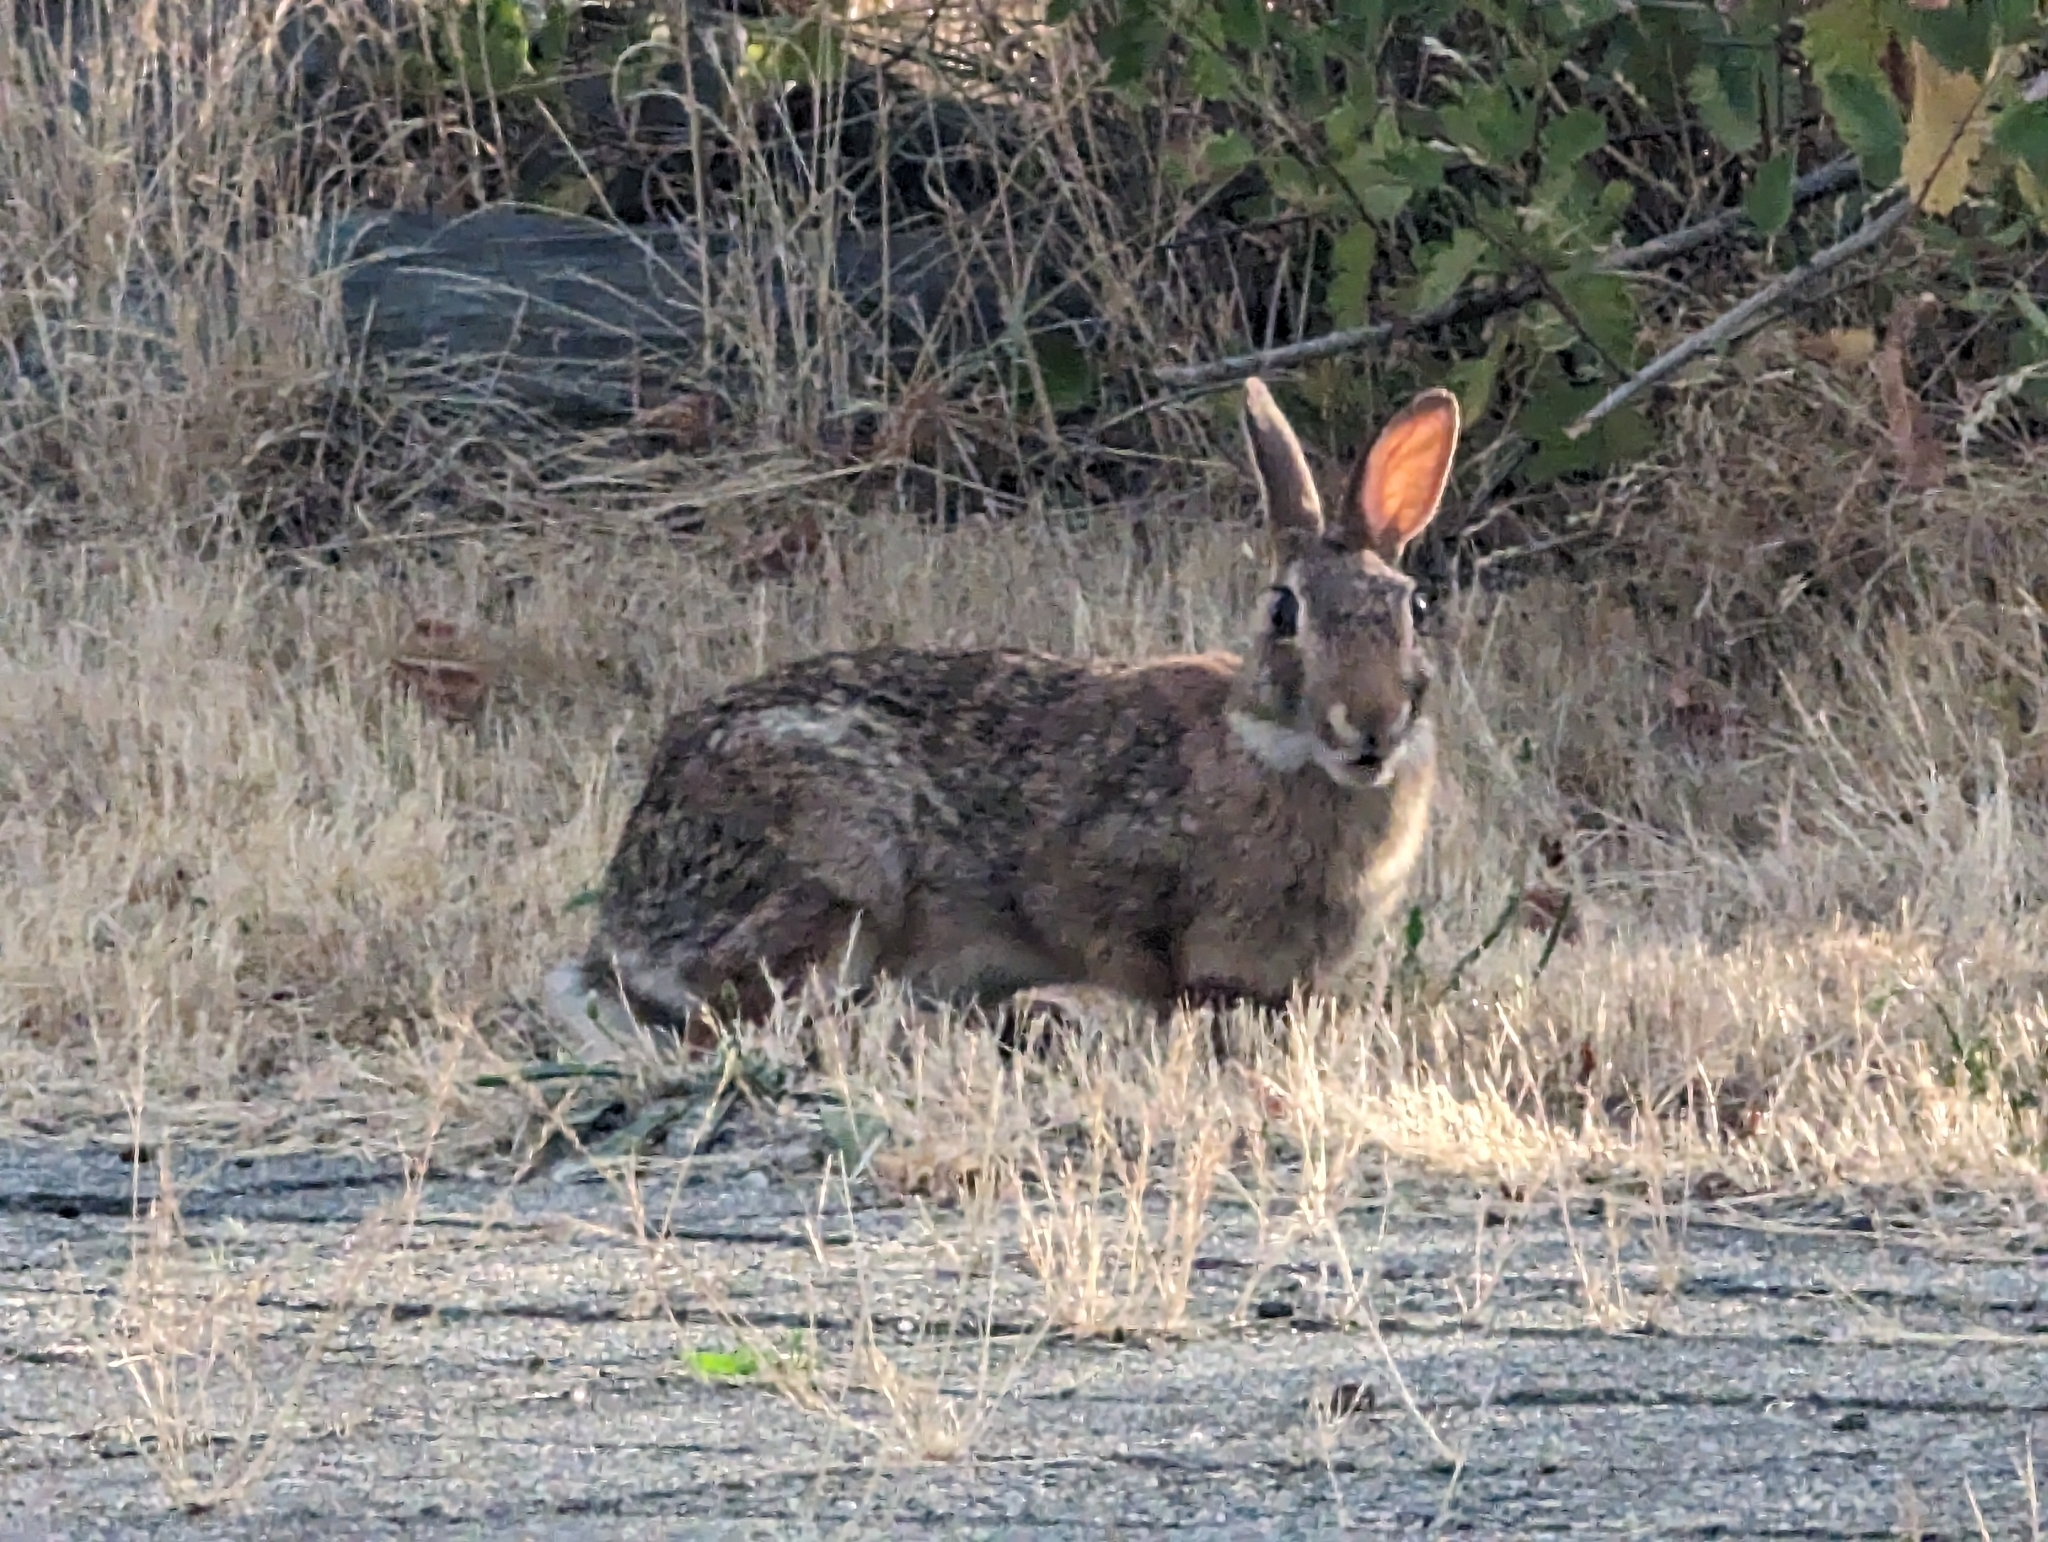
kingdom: Animalia
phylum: Chordata
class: Mammalia
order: Lagomorpha
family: Leporidae
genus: Sylvilagus
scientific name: Sylvilagus floridanus
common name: Eastern cottontail
